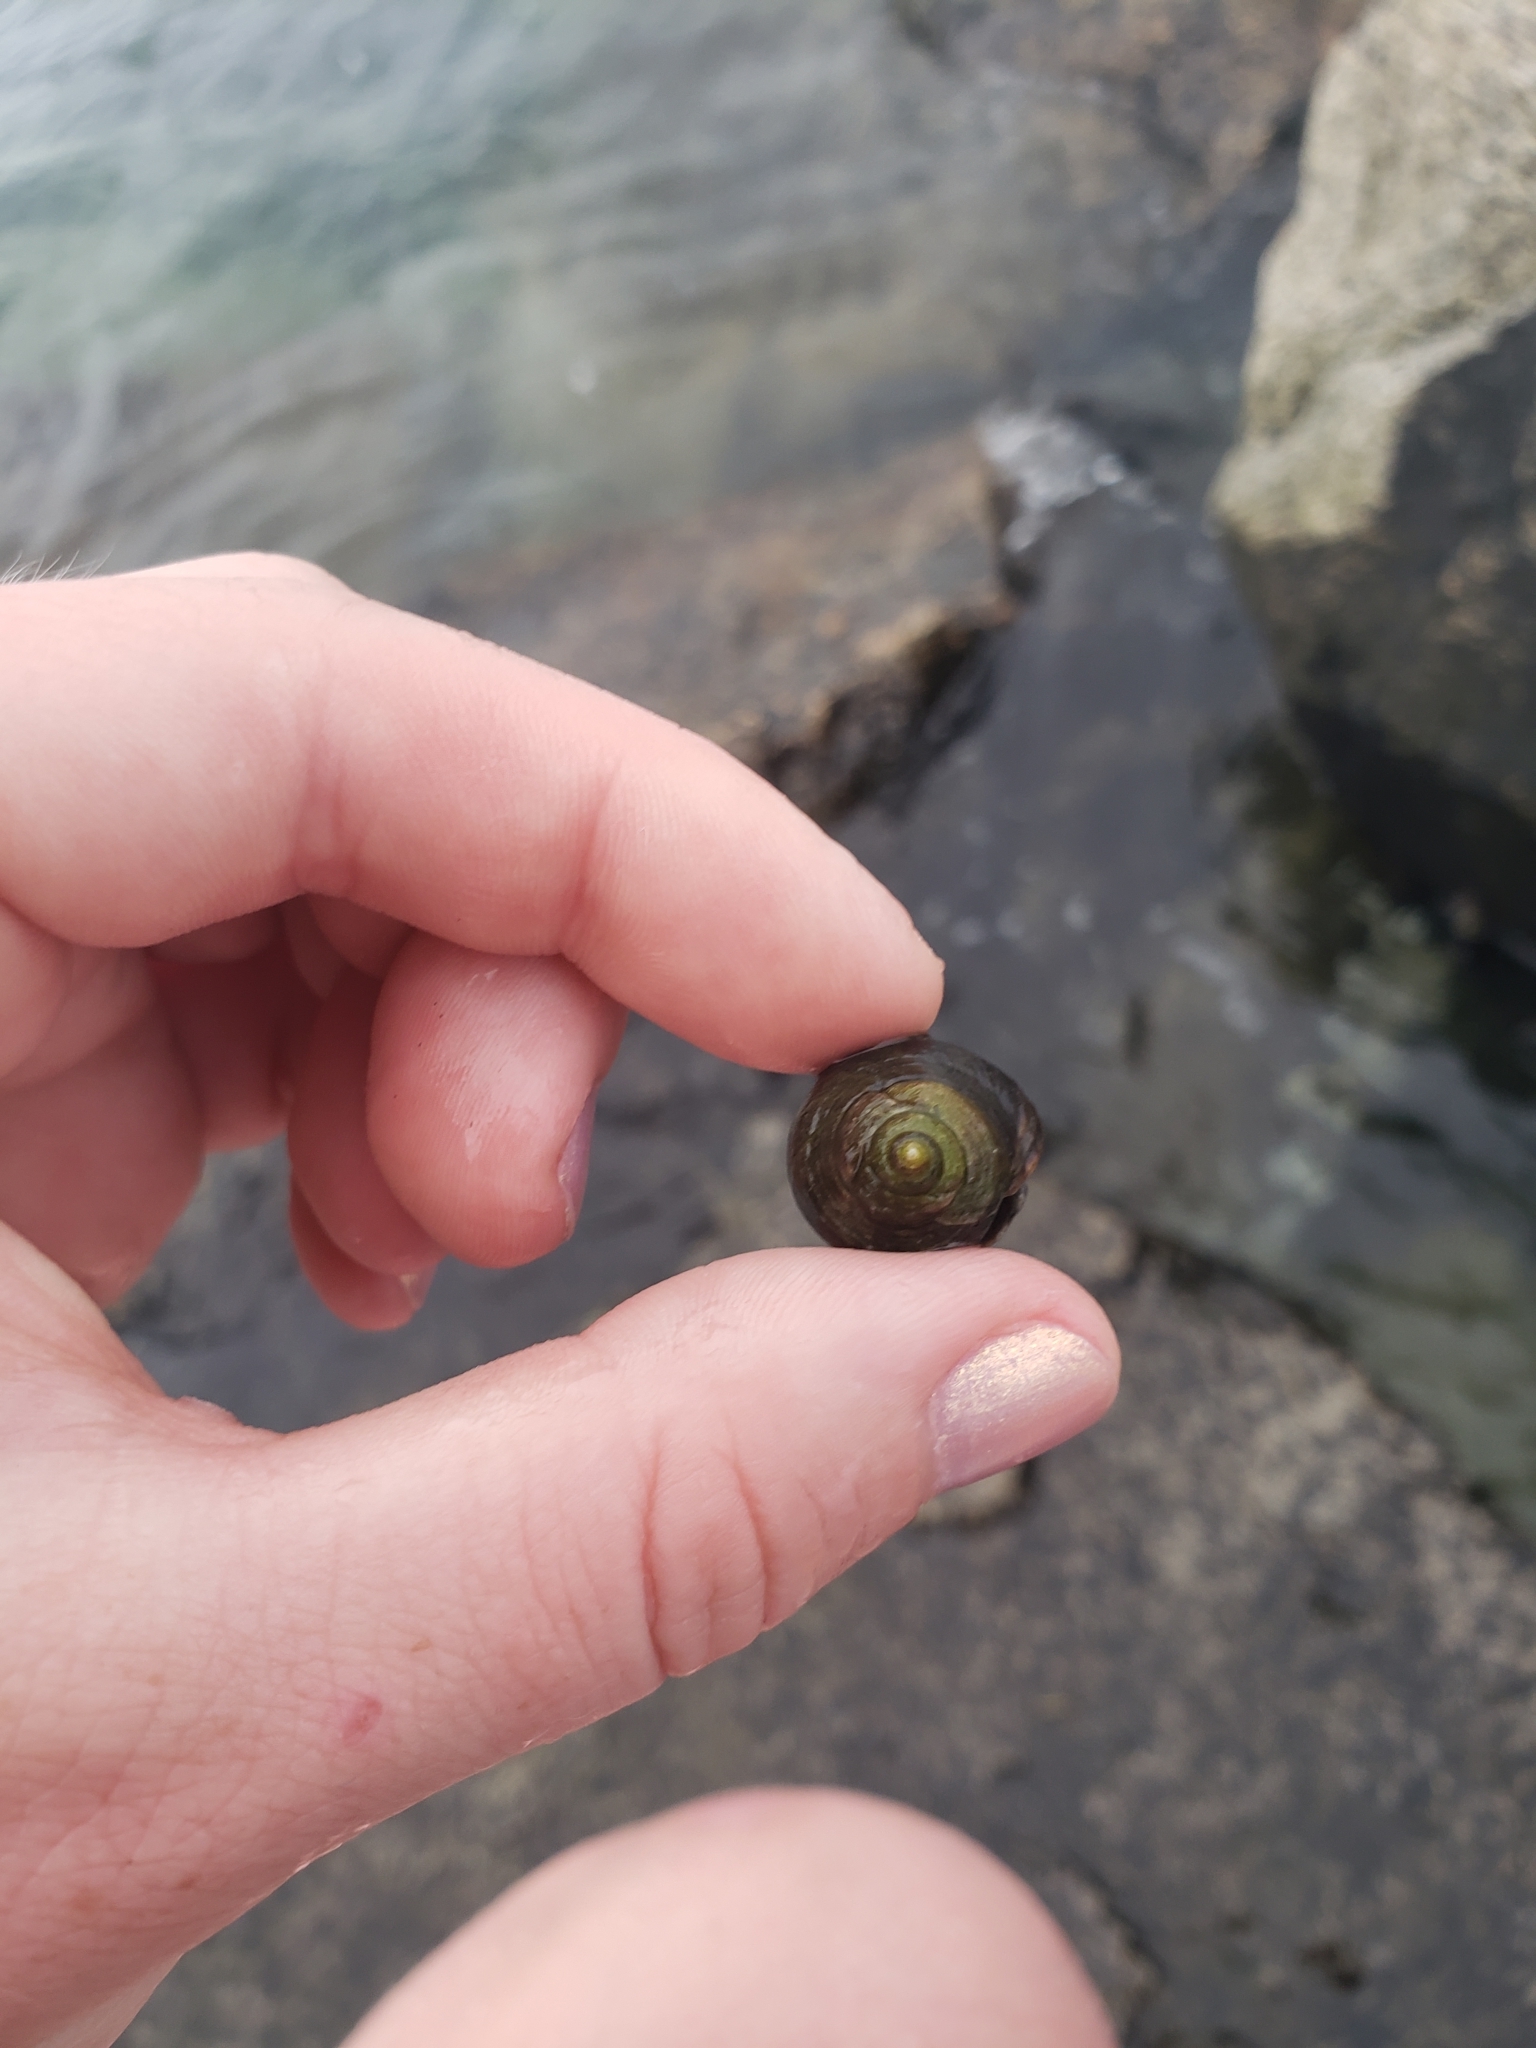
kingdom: Animalia
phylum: Mollusca
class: Gastropoda
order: Littorinimorpha
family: Littorinidae
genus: Littorina
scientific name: Littorina littorea
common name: Common periwinkle
